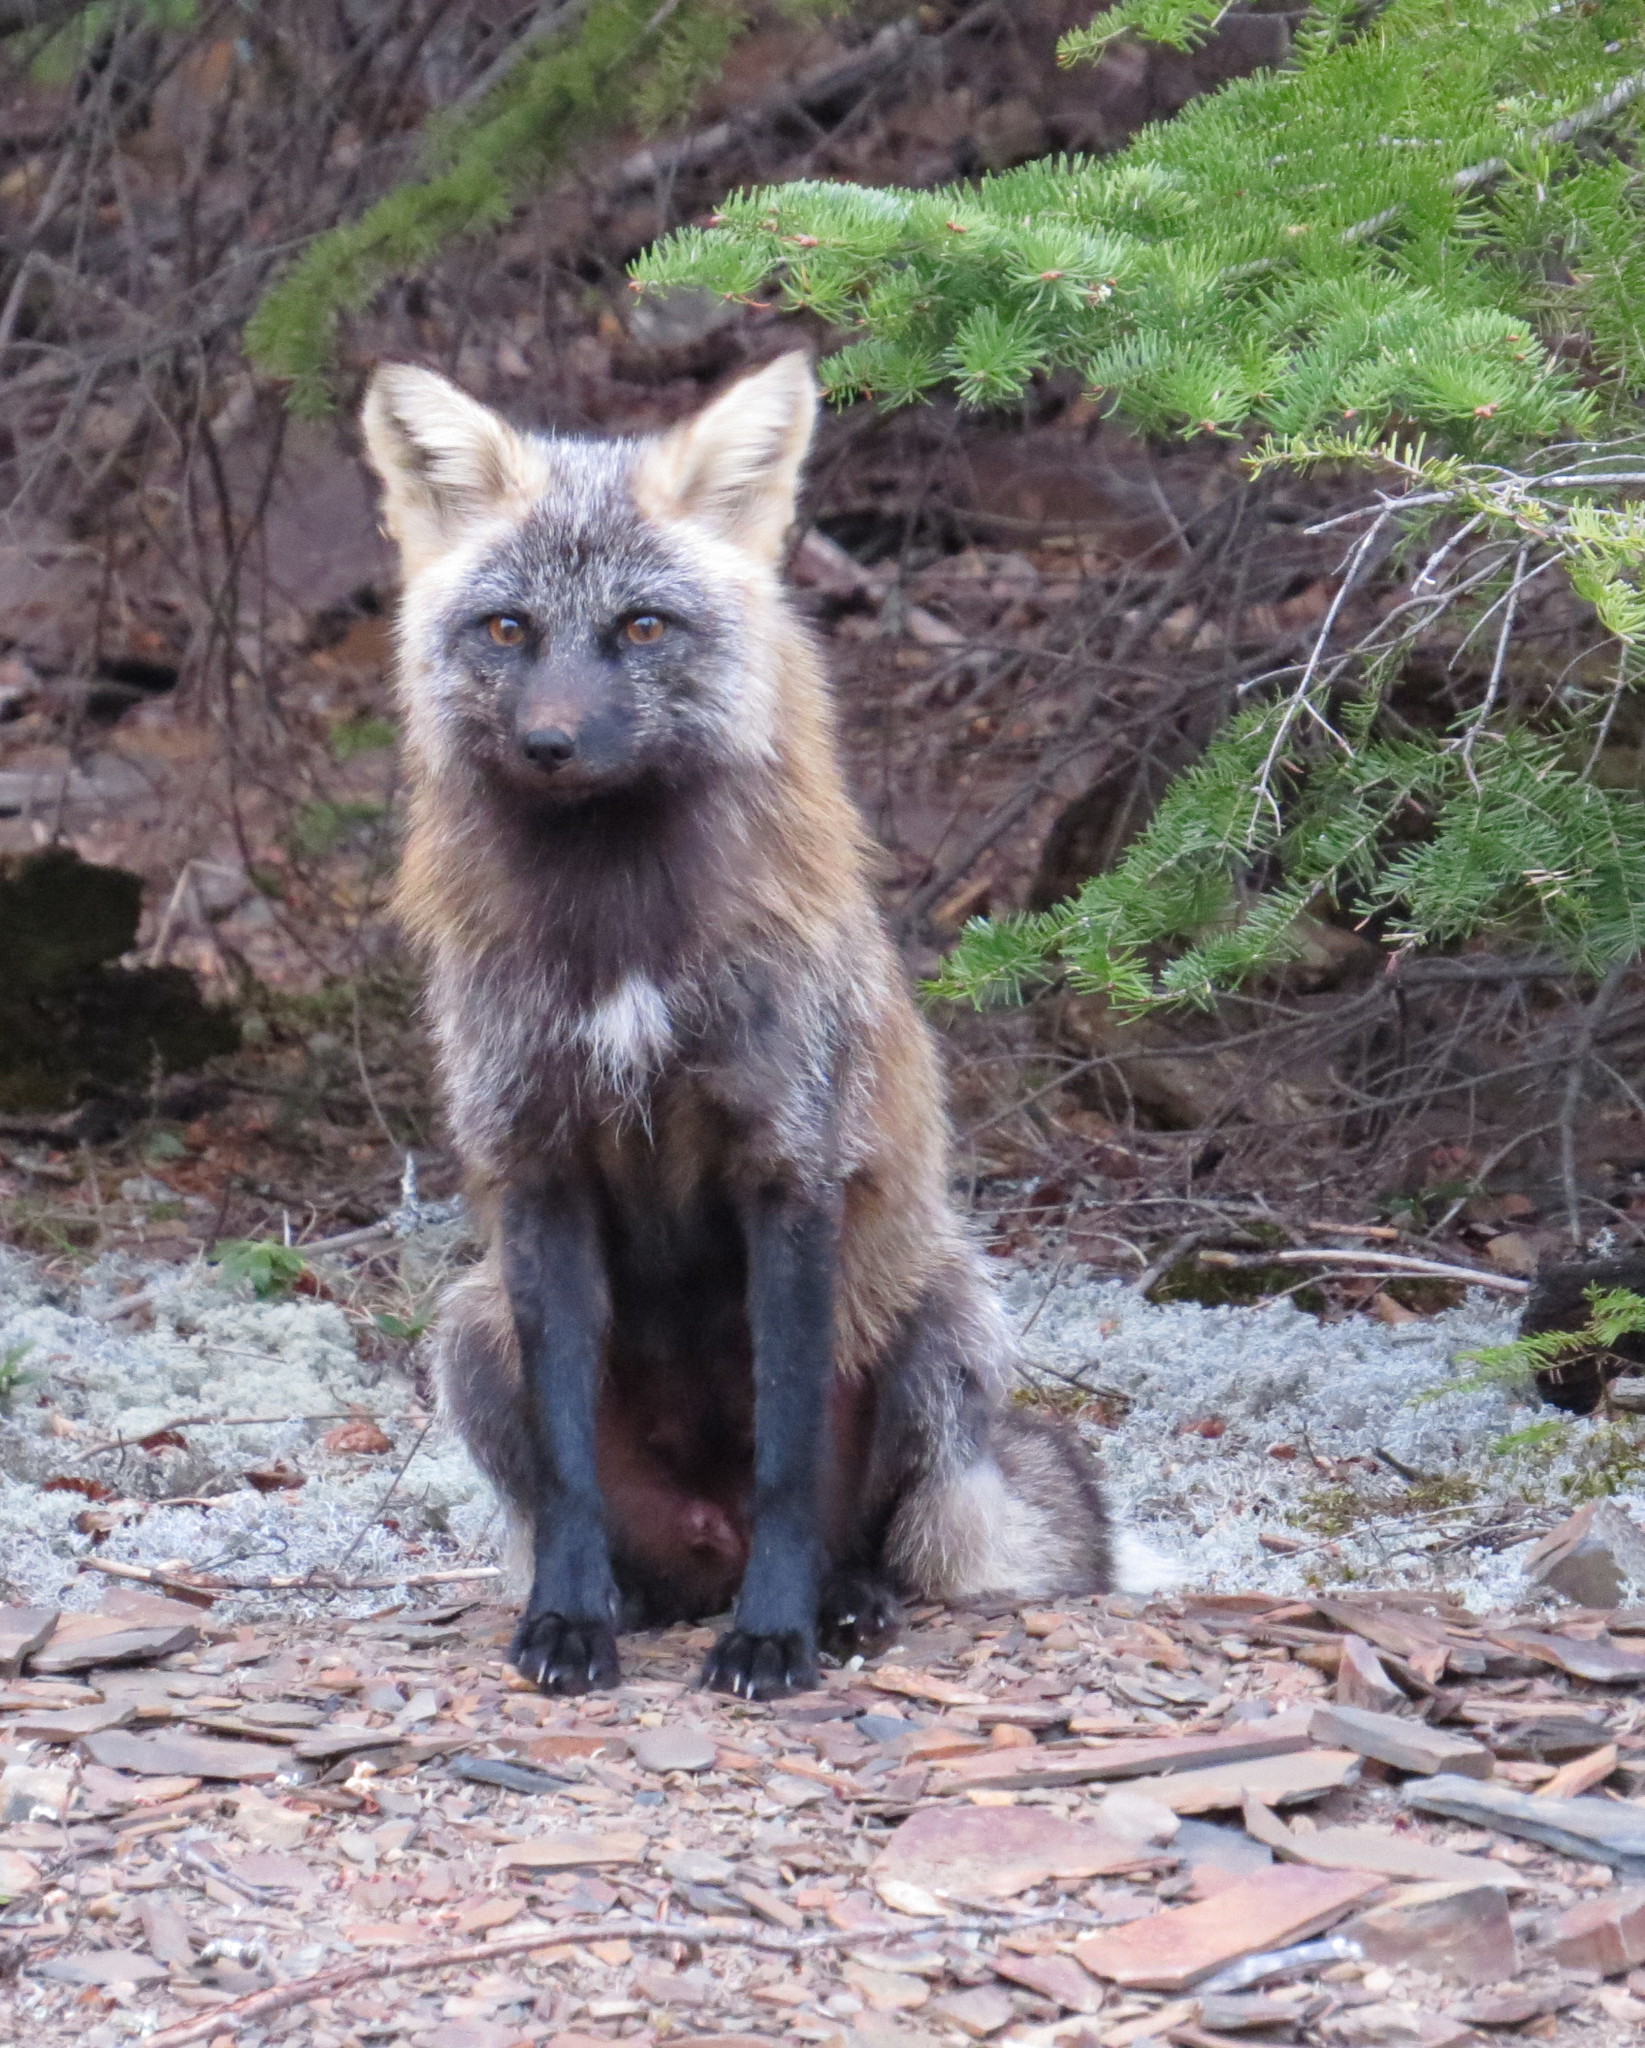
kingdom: Animalia
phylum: Chordata
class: Mammalia
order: Carnivora
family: Canidae
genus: Vulpes
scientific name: Vulpes vulpes
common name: Red fox
